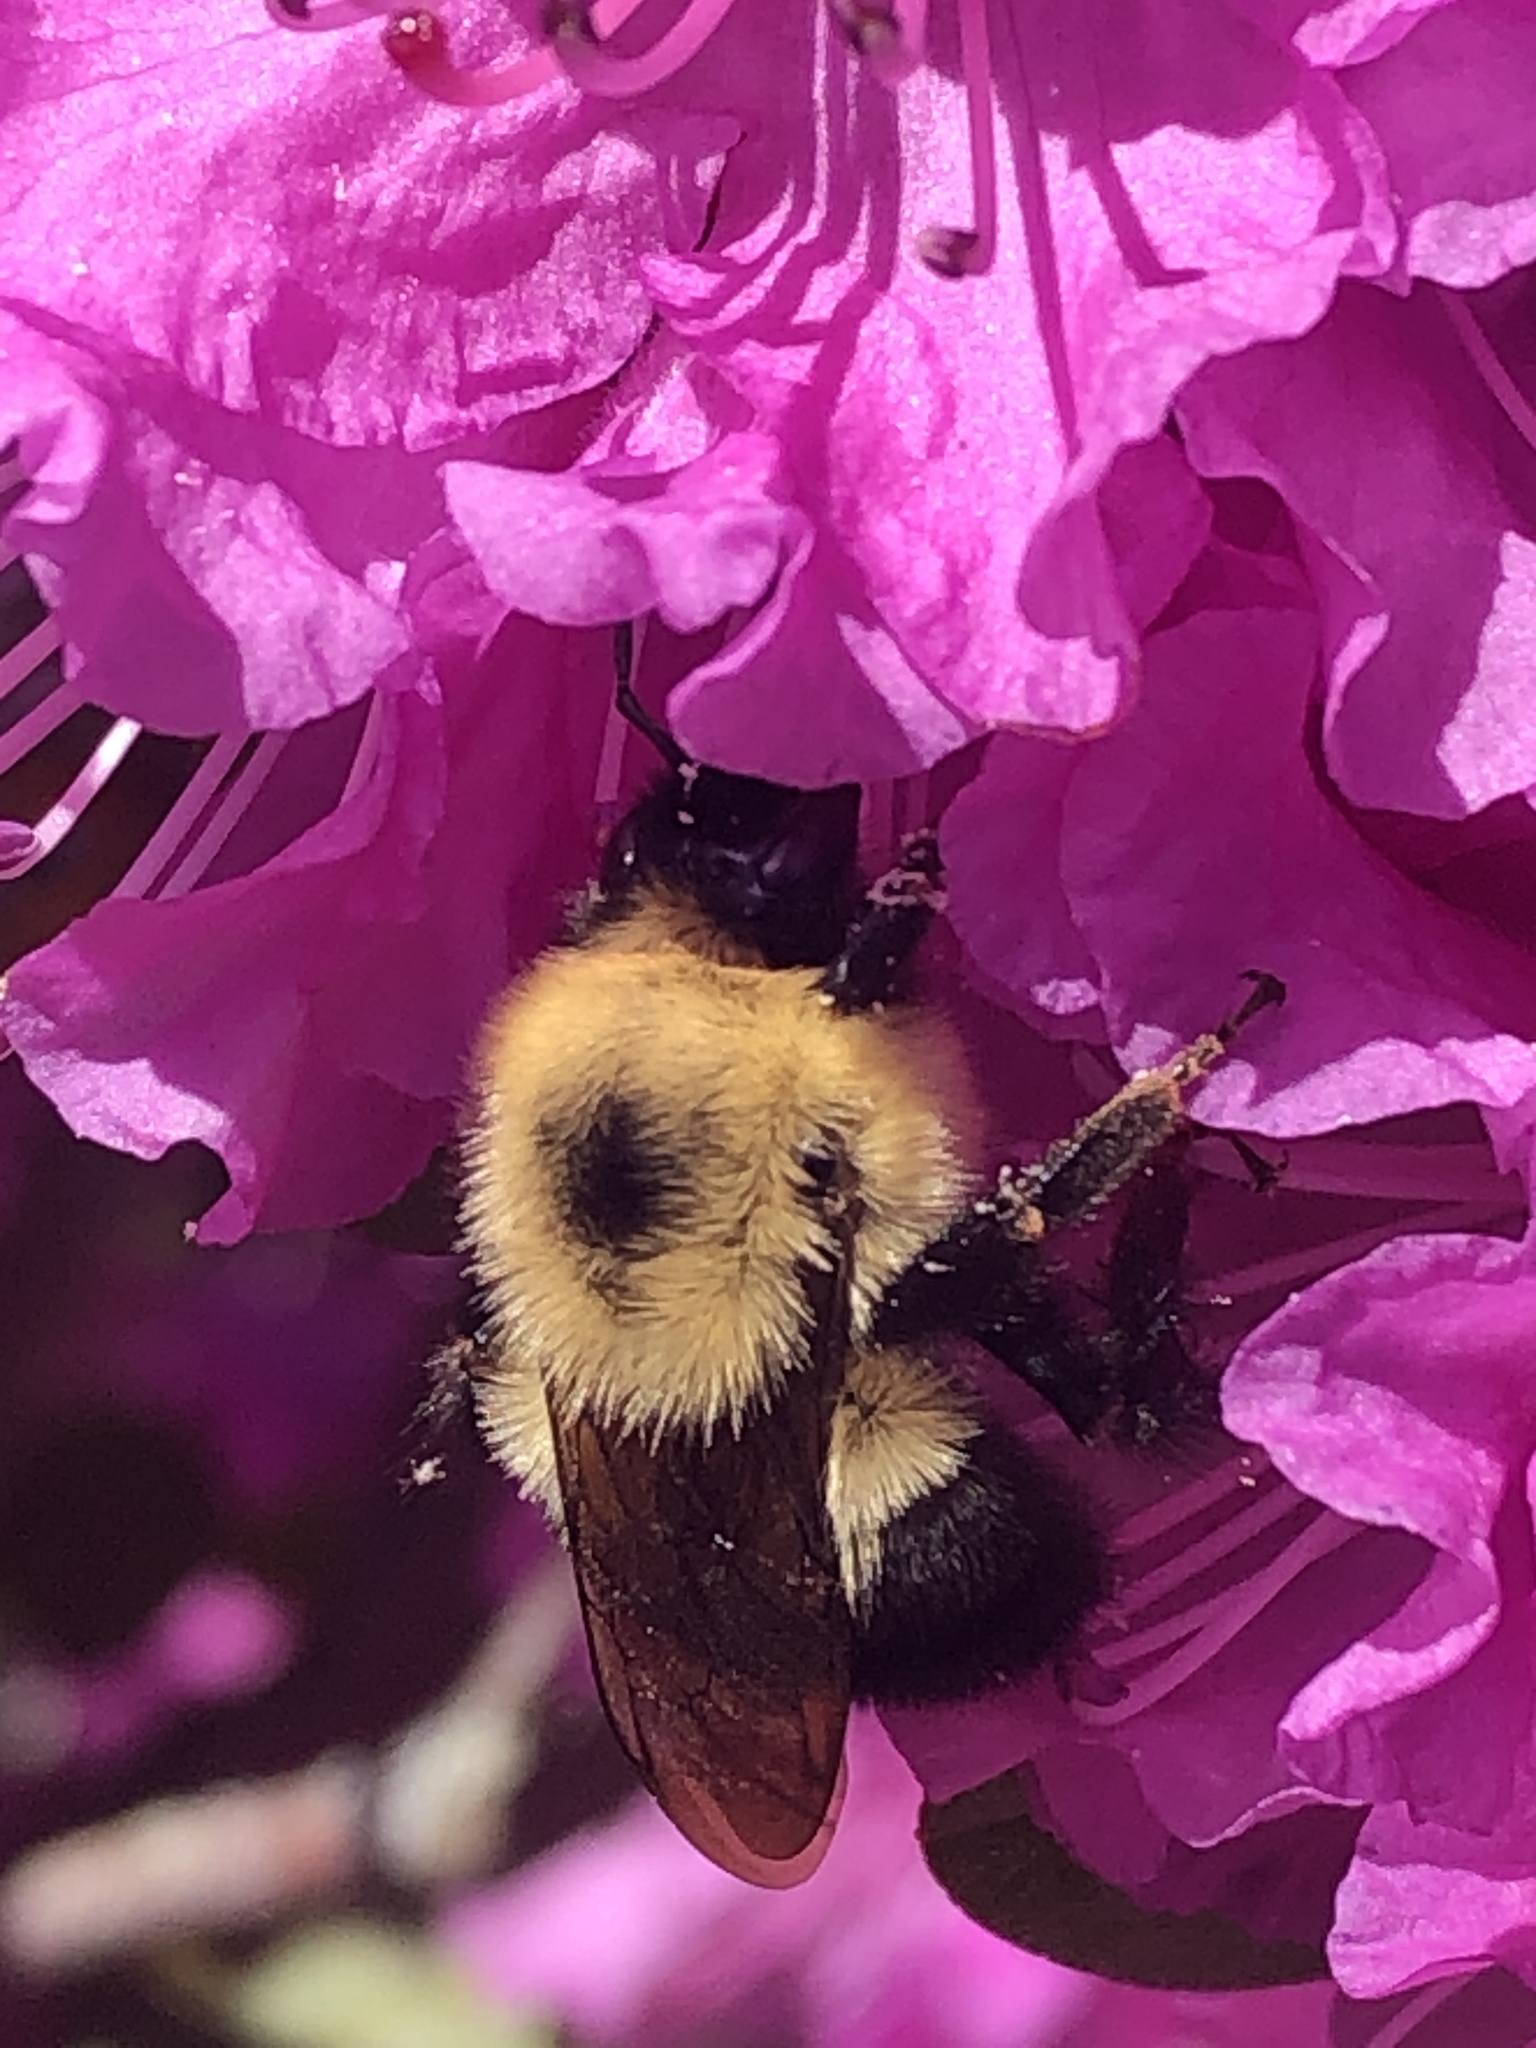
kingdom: Animalia
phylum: Arthropoda
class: Insecta
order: Hymenoptera
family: Apidae
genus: Bombus
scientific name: Bombus bimaculatus
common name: Two-spotted bumble bee
